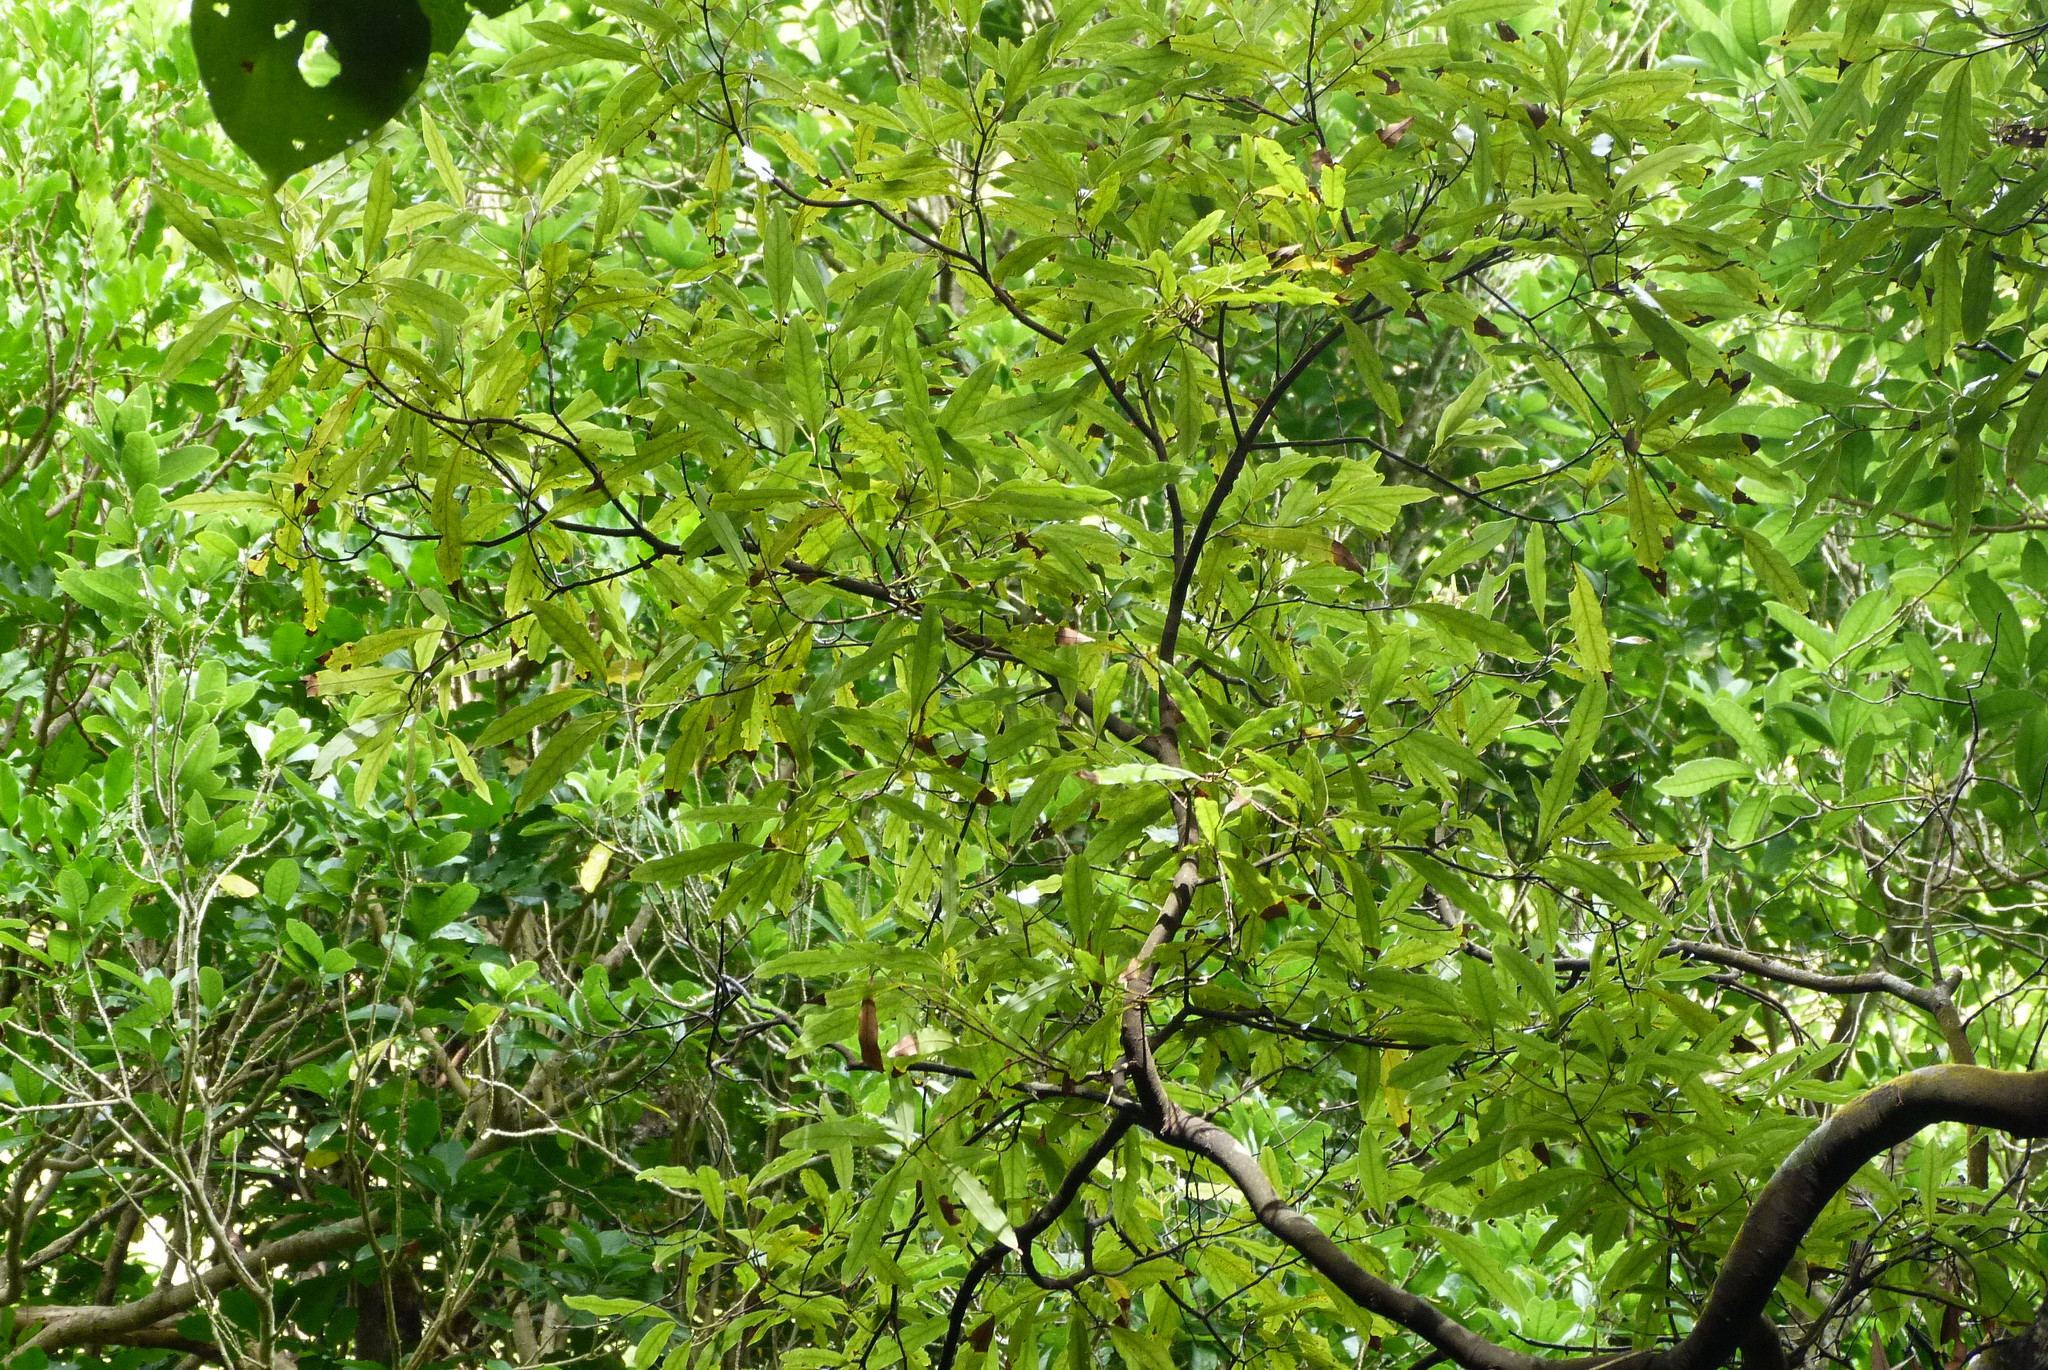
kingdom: Plantae
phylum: Tracheophyta
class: Magnoliopsida
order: Laurales
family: Lauraceae
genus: Beilschmiedia
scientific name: Beilschmiedia tawa
